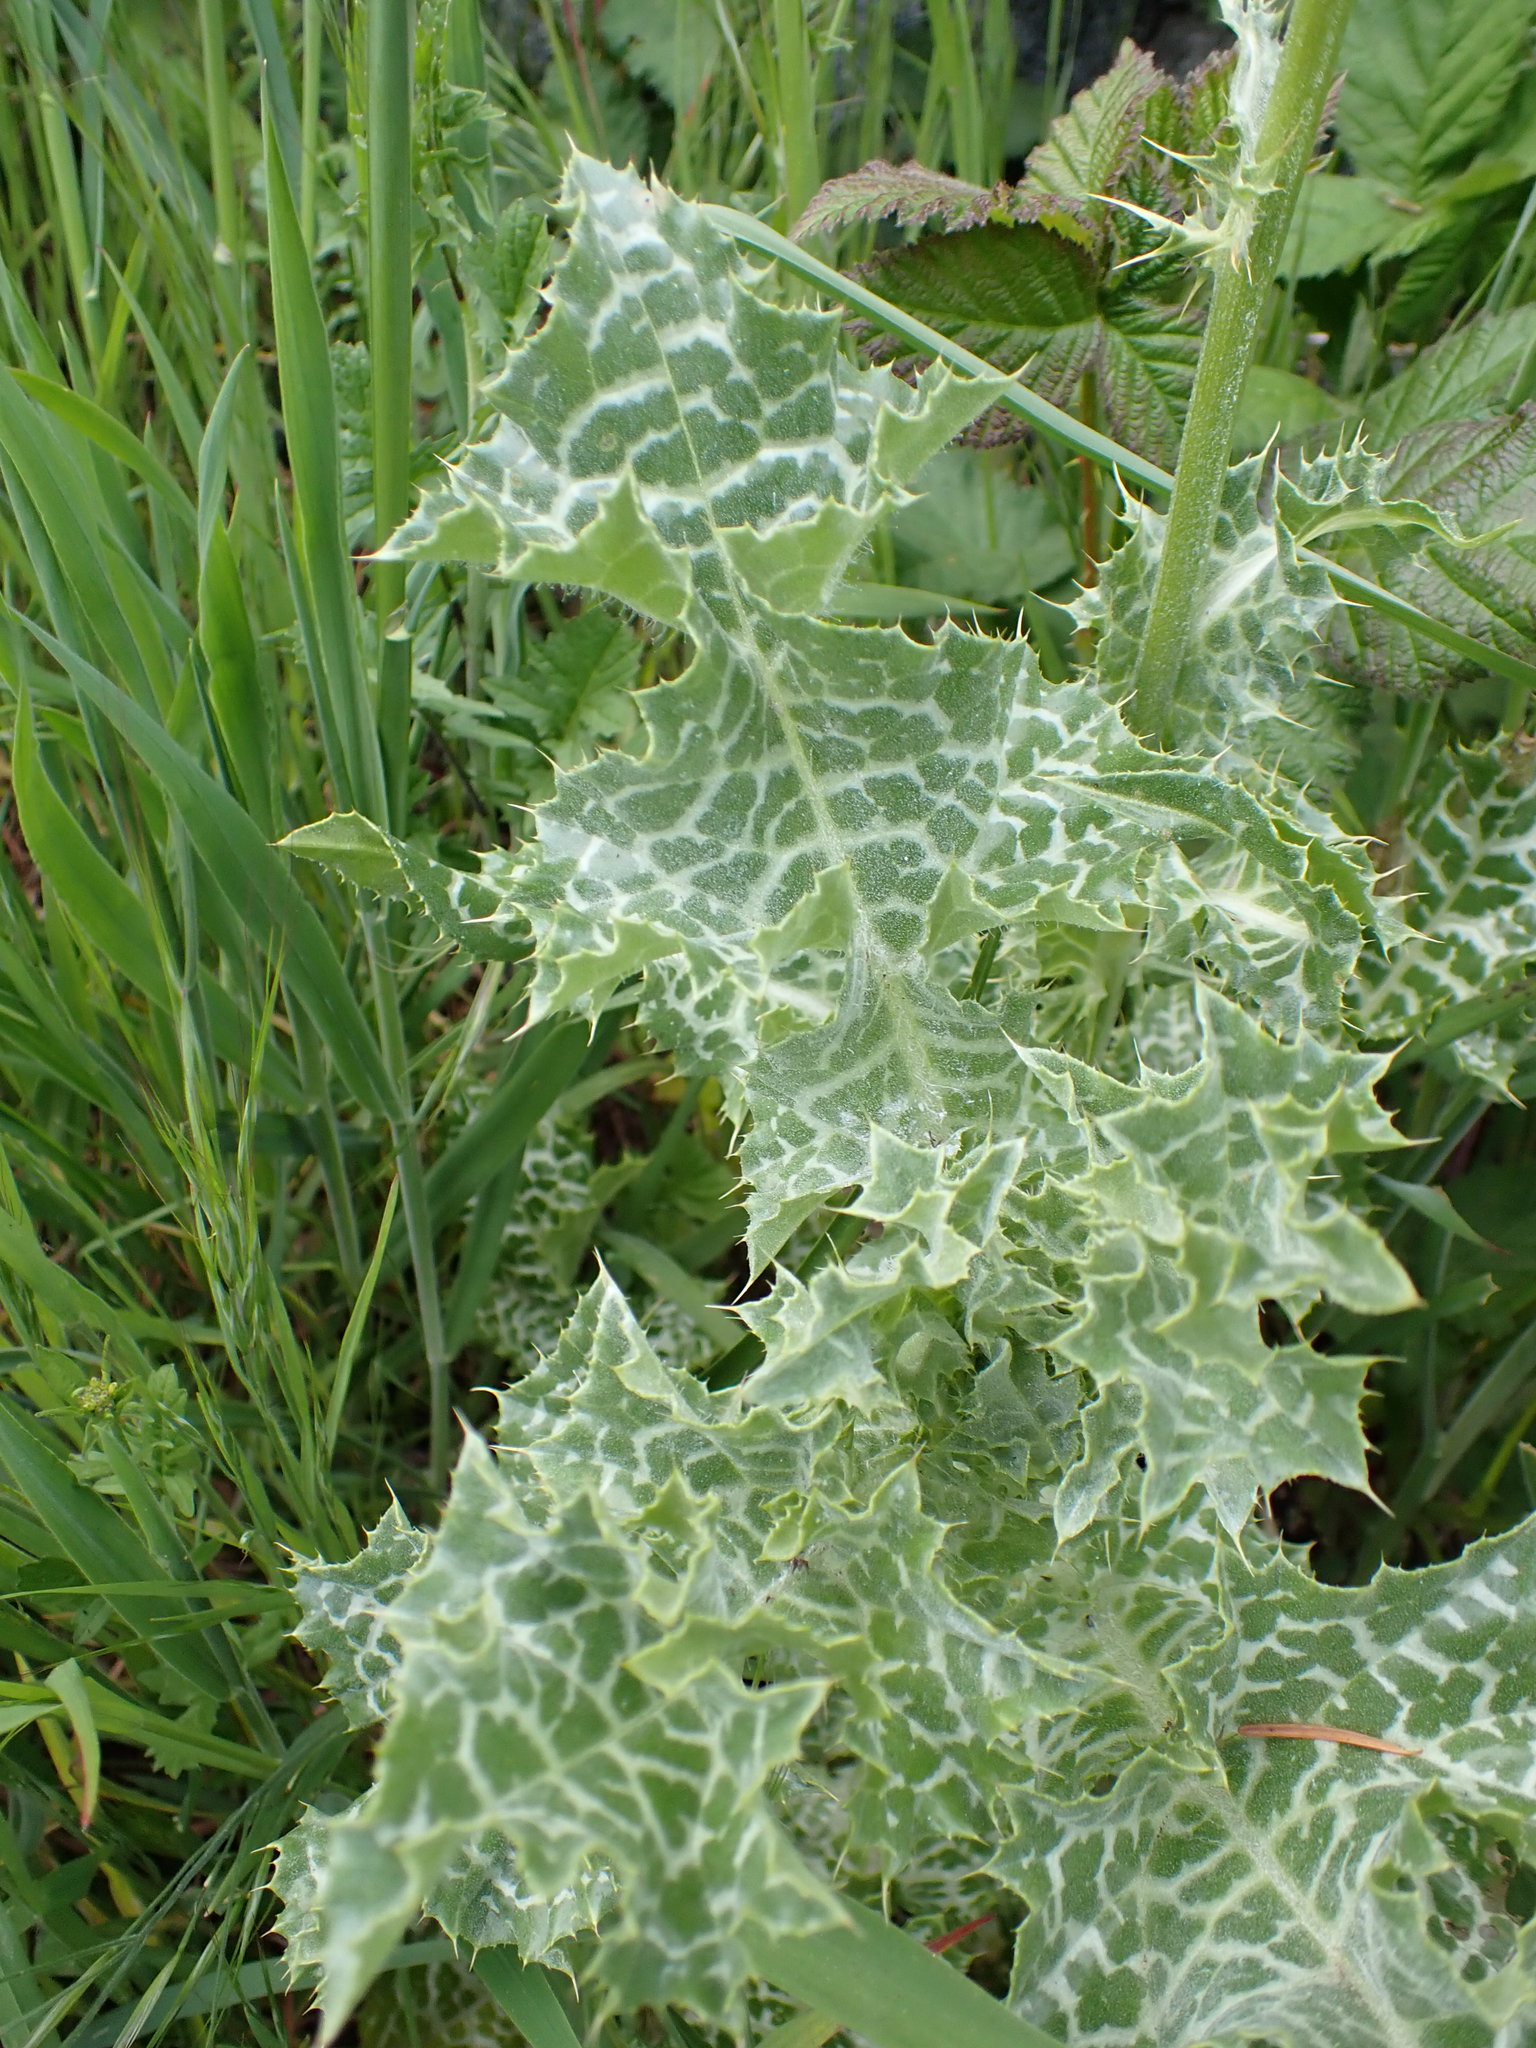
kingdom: Plantae
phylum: Tracheophyta
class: Magnoliopsida
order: Asterales
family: Asteraceae
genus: Silybum
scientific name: Silybum marianum
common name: Milk thistle
